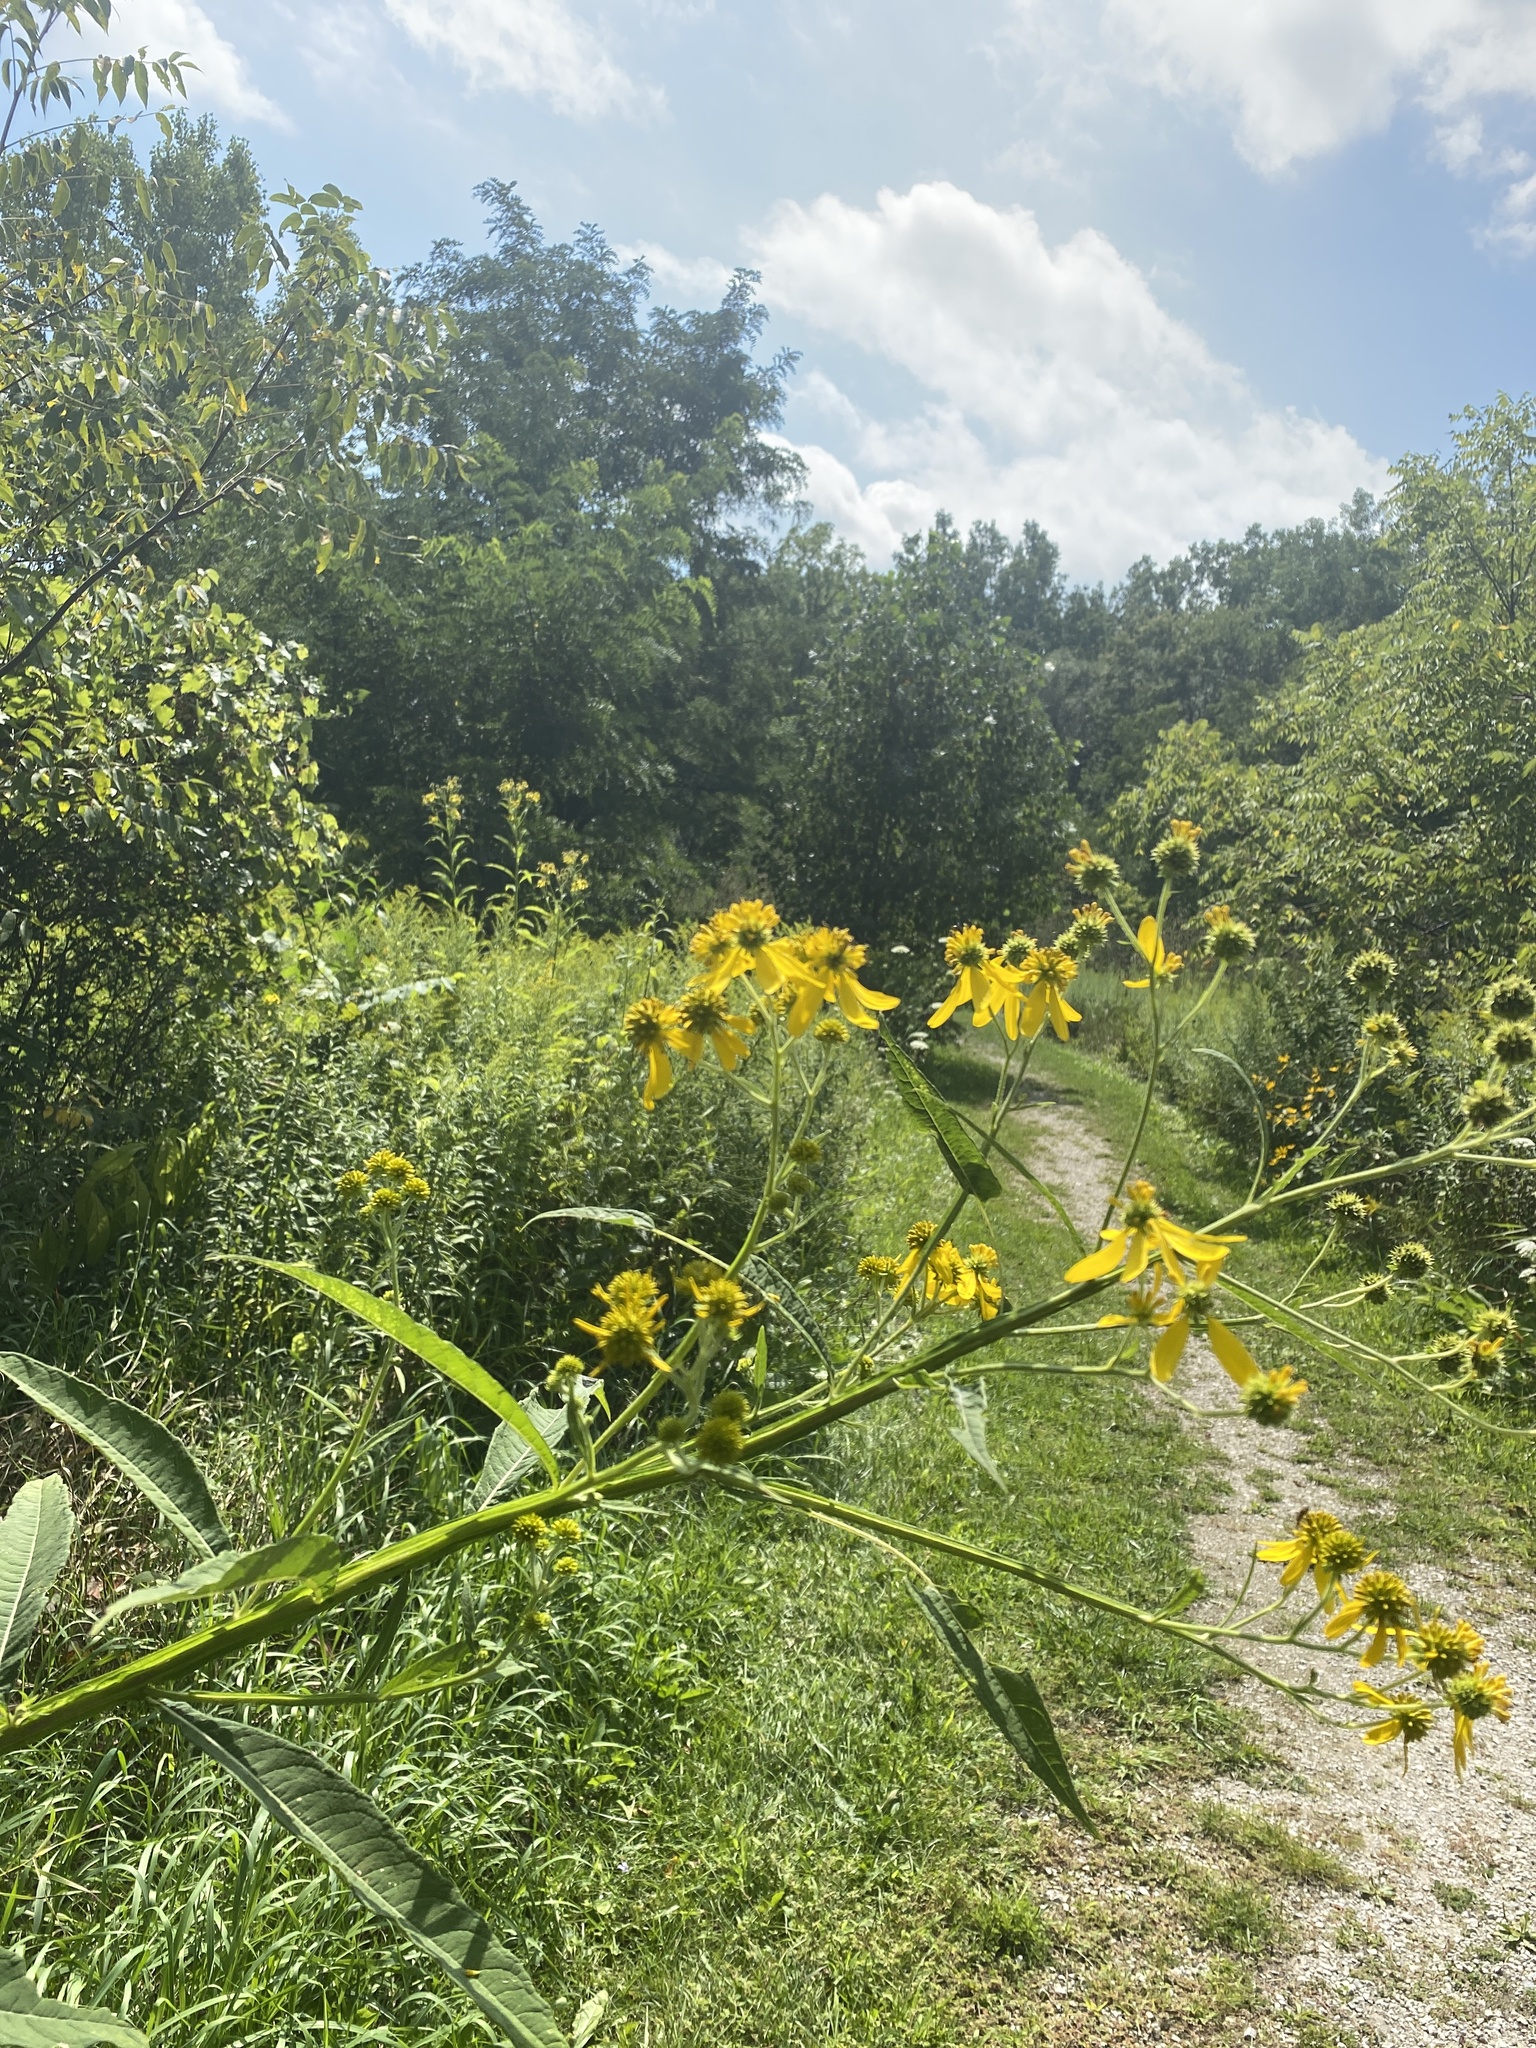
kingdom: Plantae
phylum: Tracheophyta
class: Magnoliopsida
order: Asterales
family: Asteraceae
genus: Verbesina
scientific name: Verbesina alternifolia
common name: Wingstem
